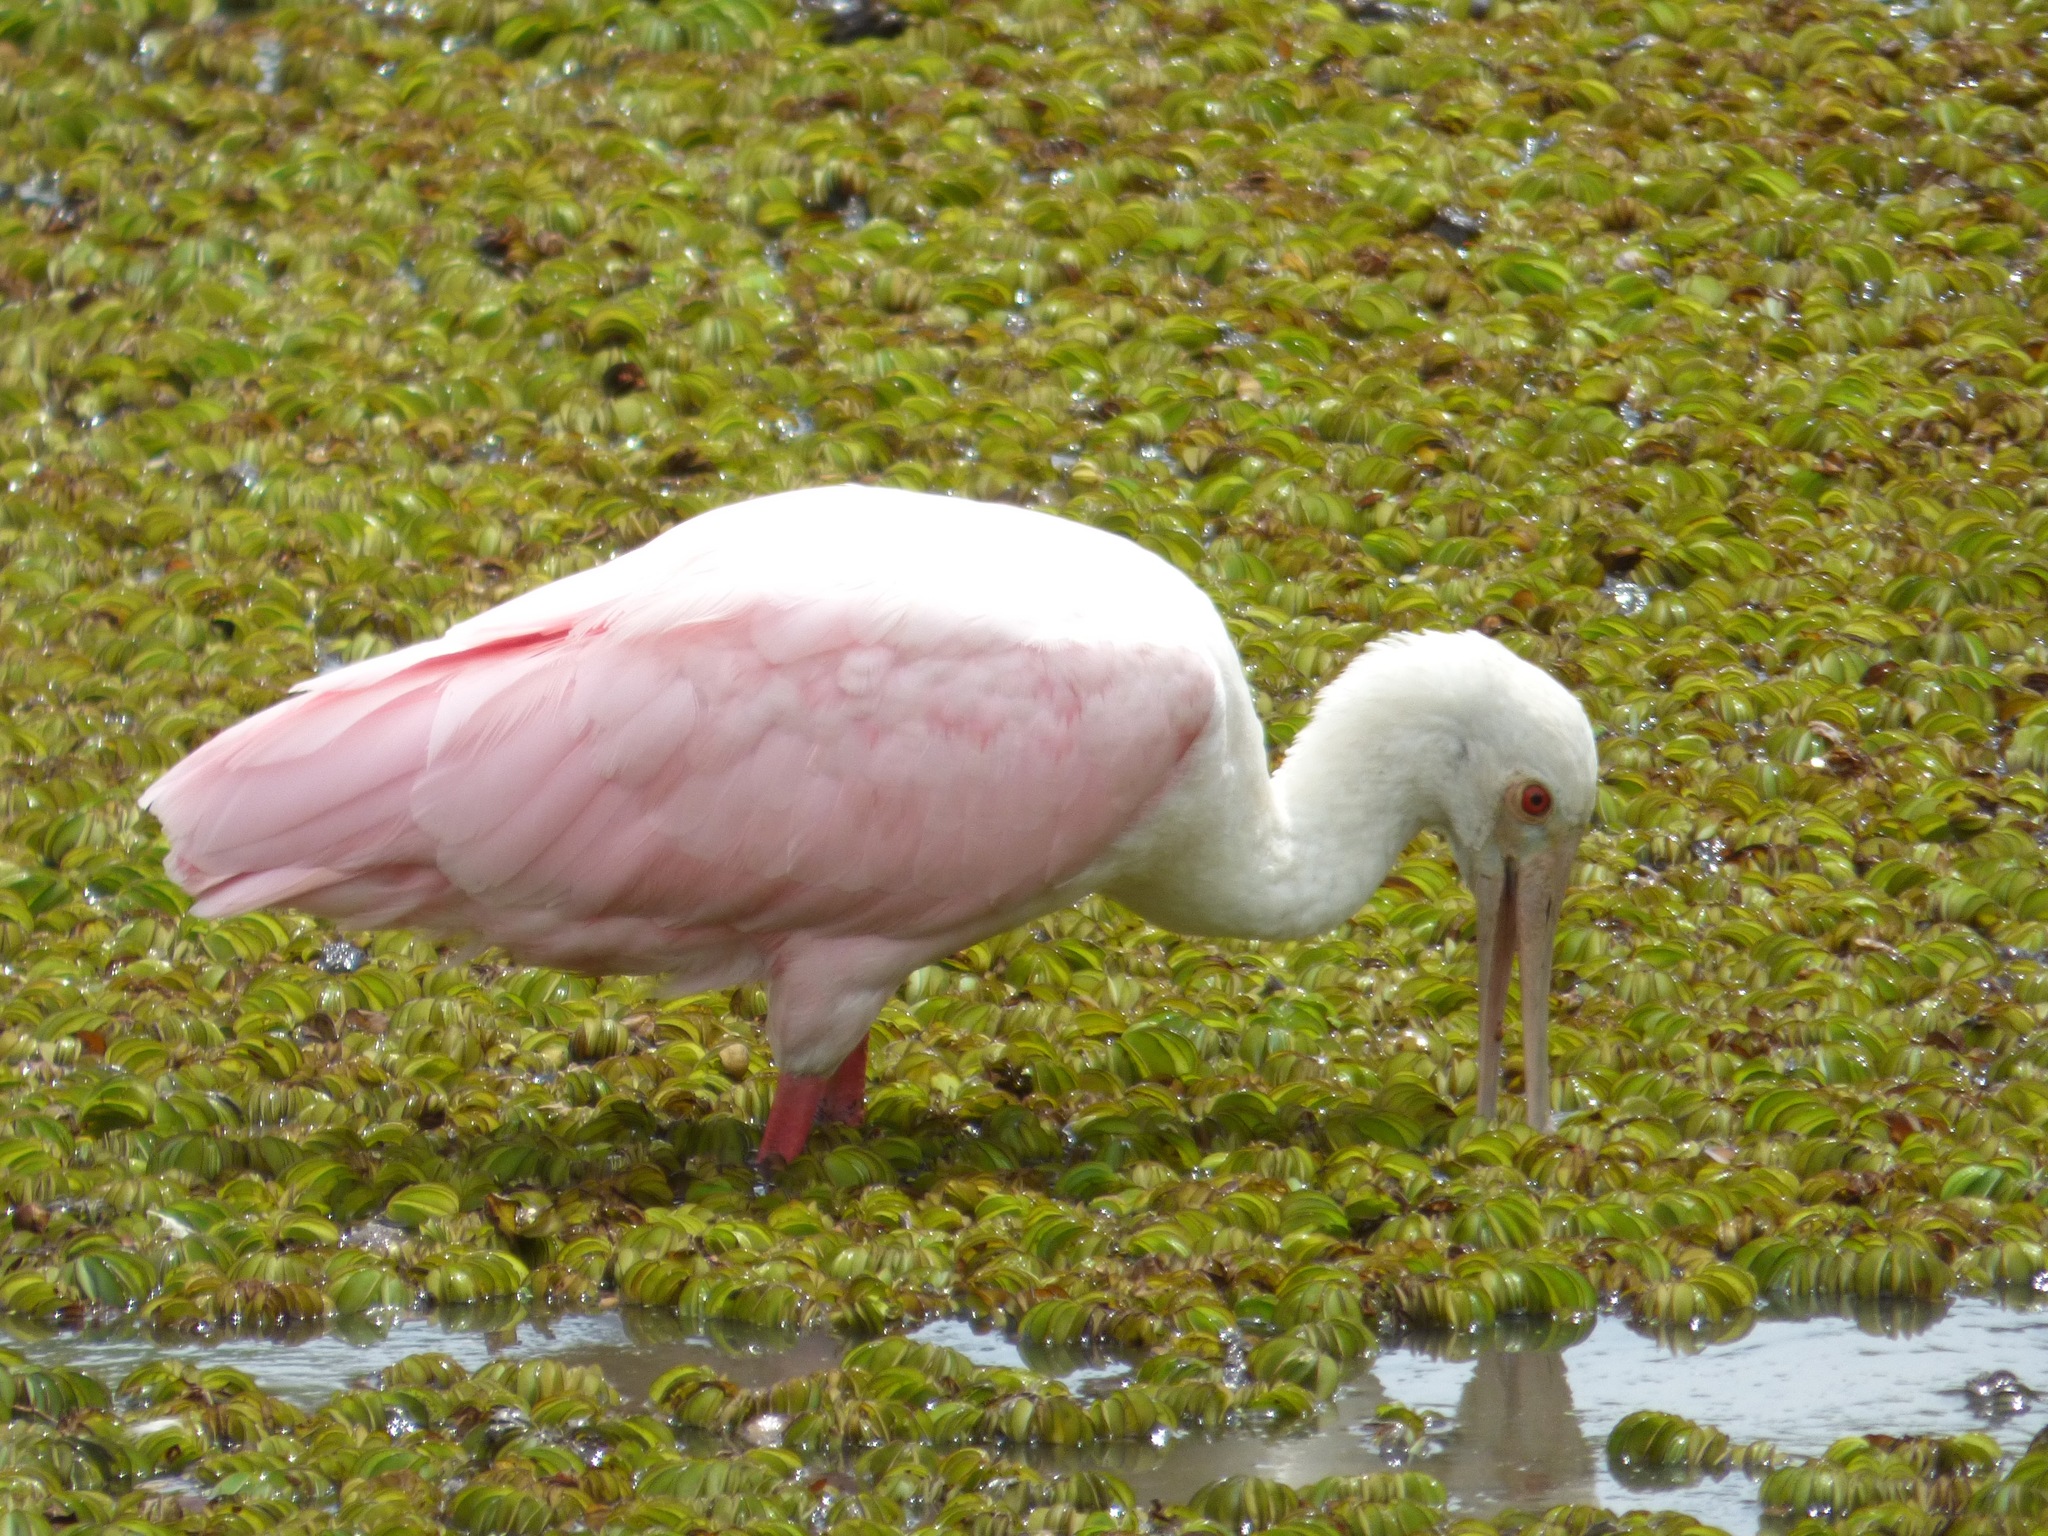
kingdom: Animalia
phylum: Chordata
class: Aves
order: Pelecaniformes
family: Threskiornithidae
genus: Platalea
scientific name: Platalea ajaja
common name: Roseate spoonbill
